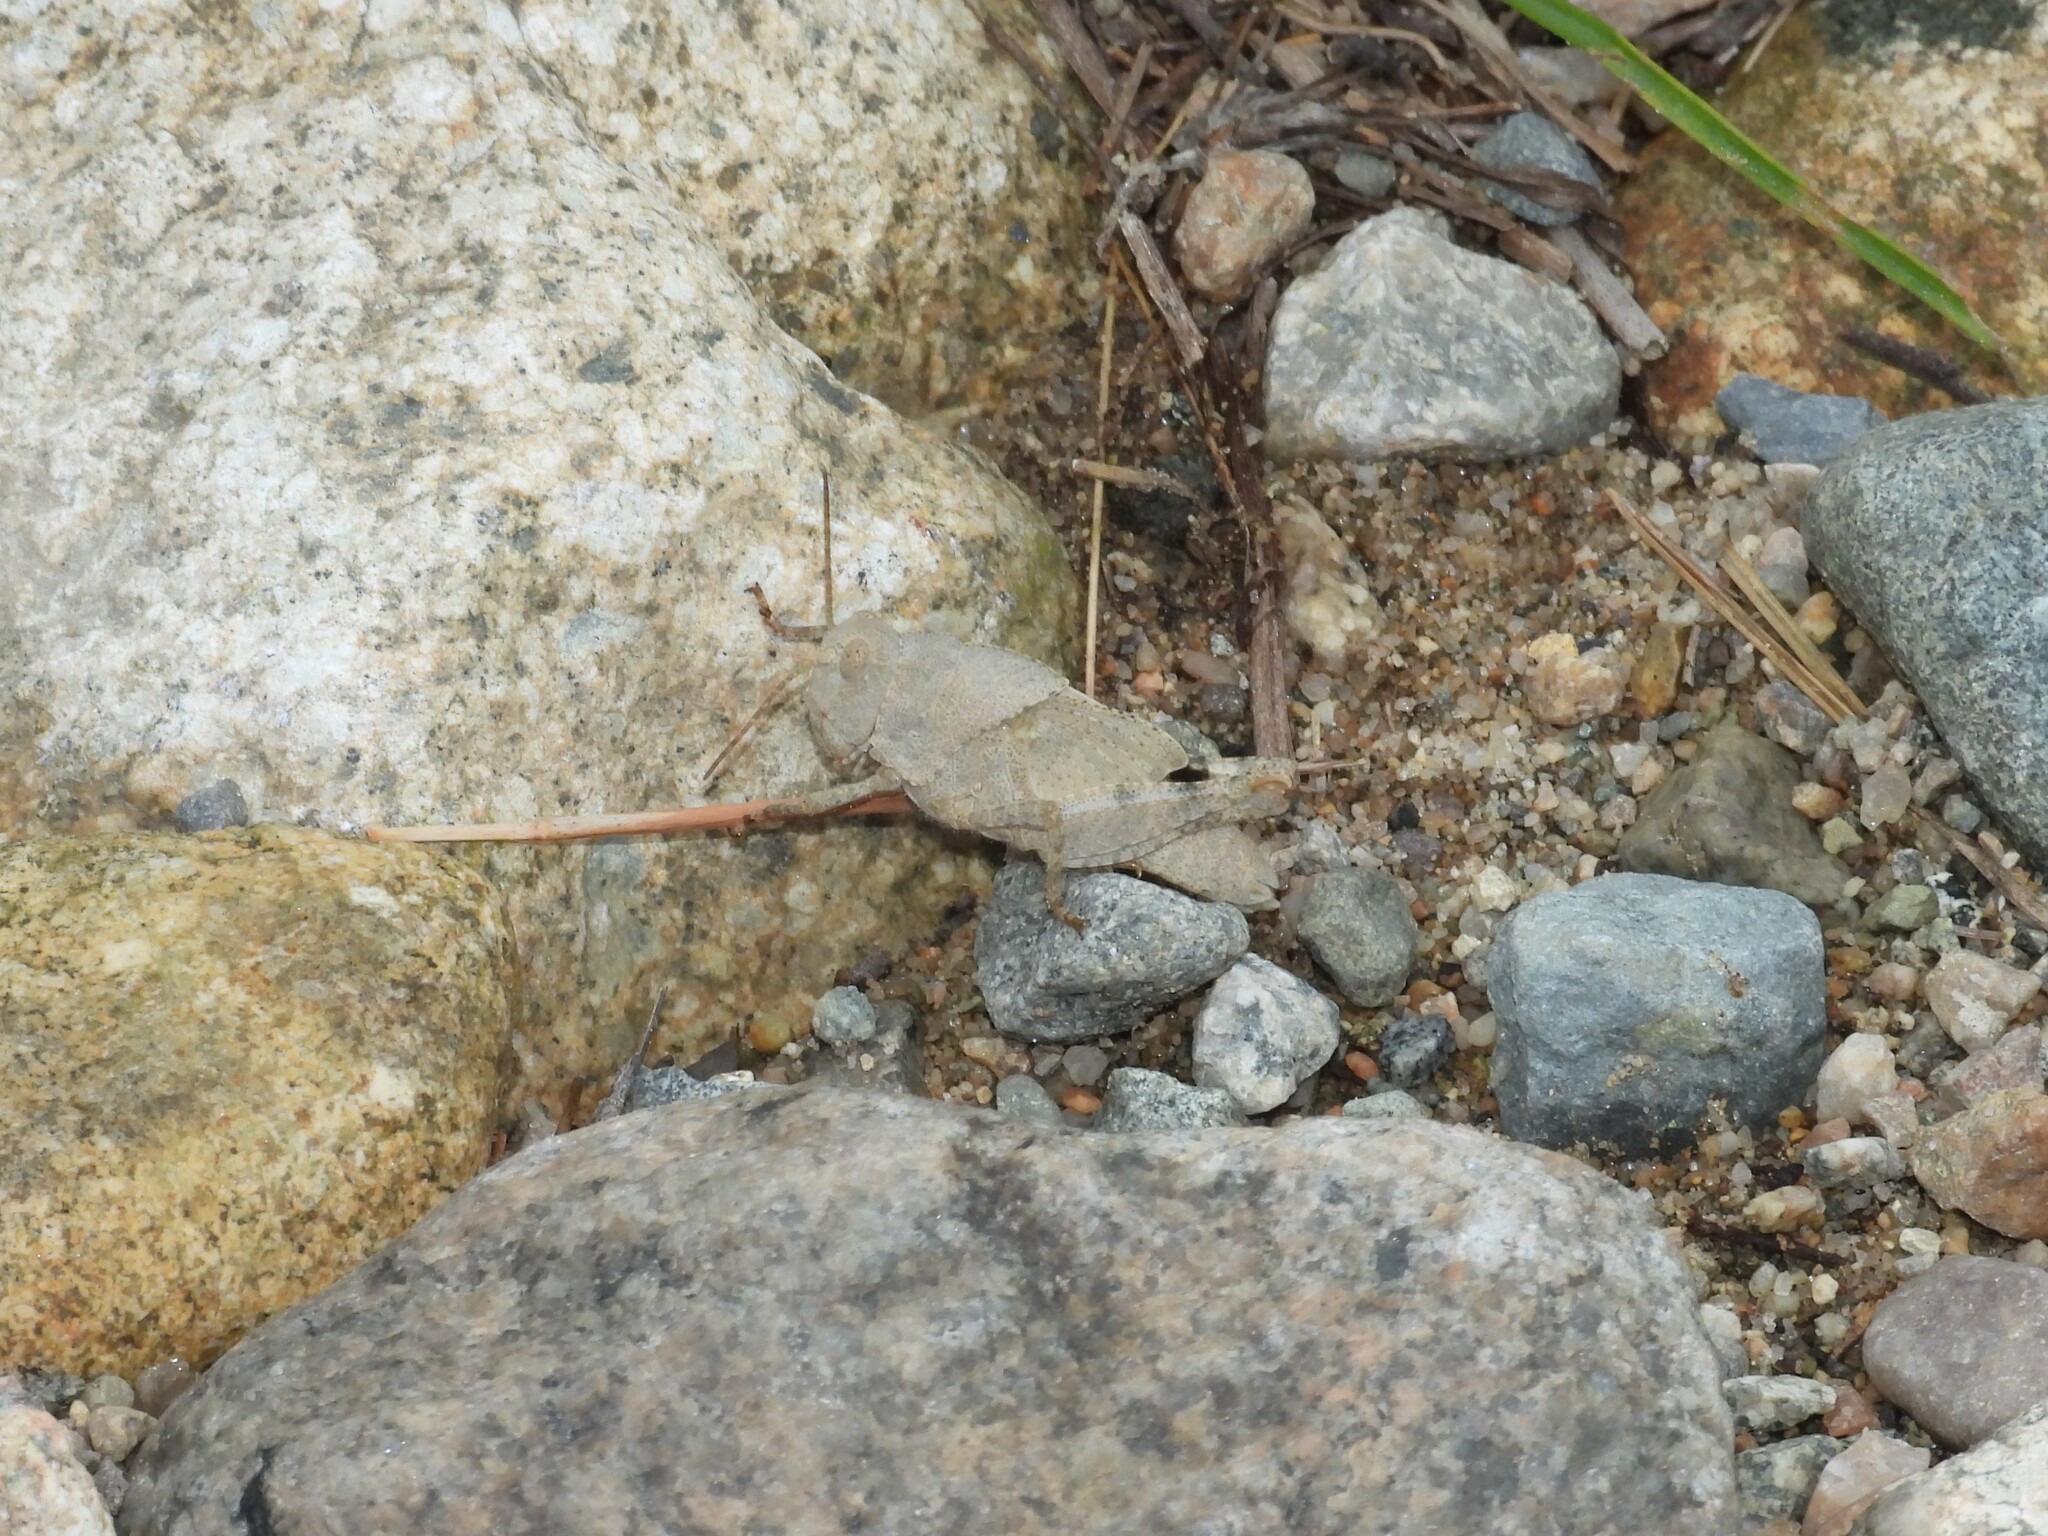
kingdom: Animalia
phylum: Arthropoda
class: Insecta
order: Orthoptera
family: Acrididae
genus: Dissosteira
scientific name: Dissosteira carolina
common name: Carolina grasshopper
